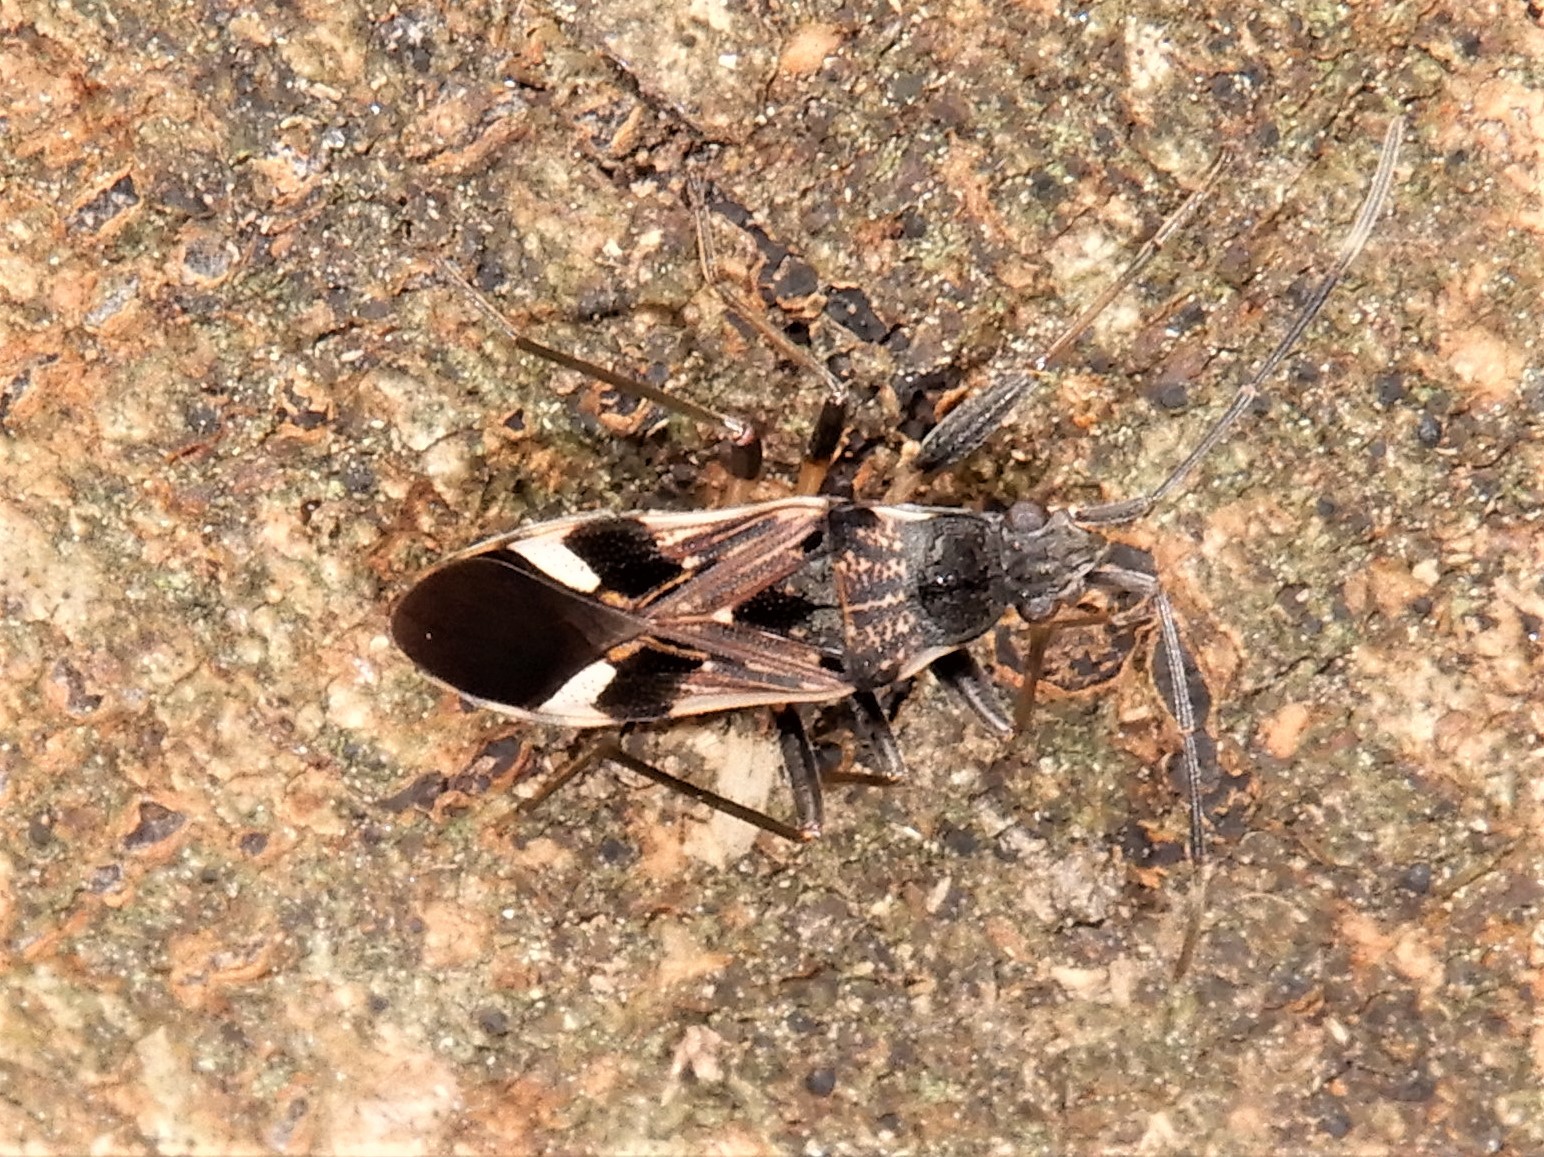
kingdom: Animalia
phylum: Arthropoda
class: Insecta
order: Hemiptera
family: Rhyparochromidae
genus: Dieuches
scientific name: Dieuches notatus
